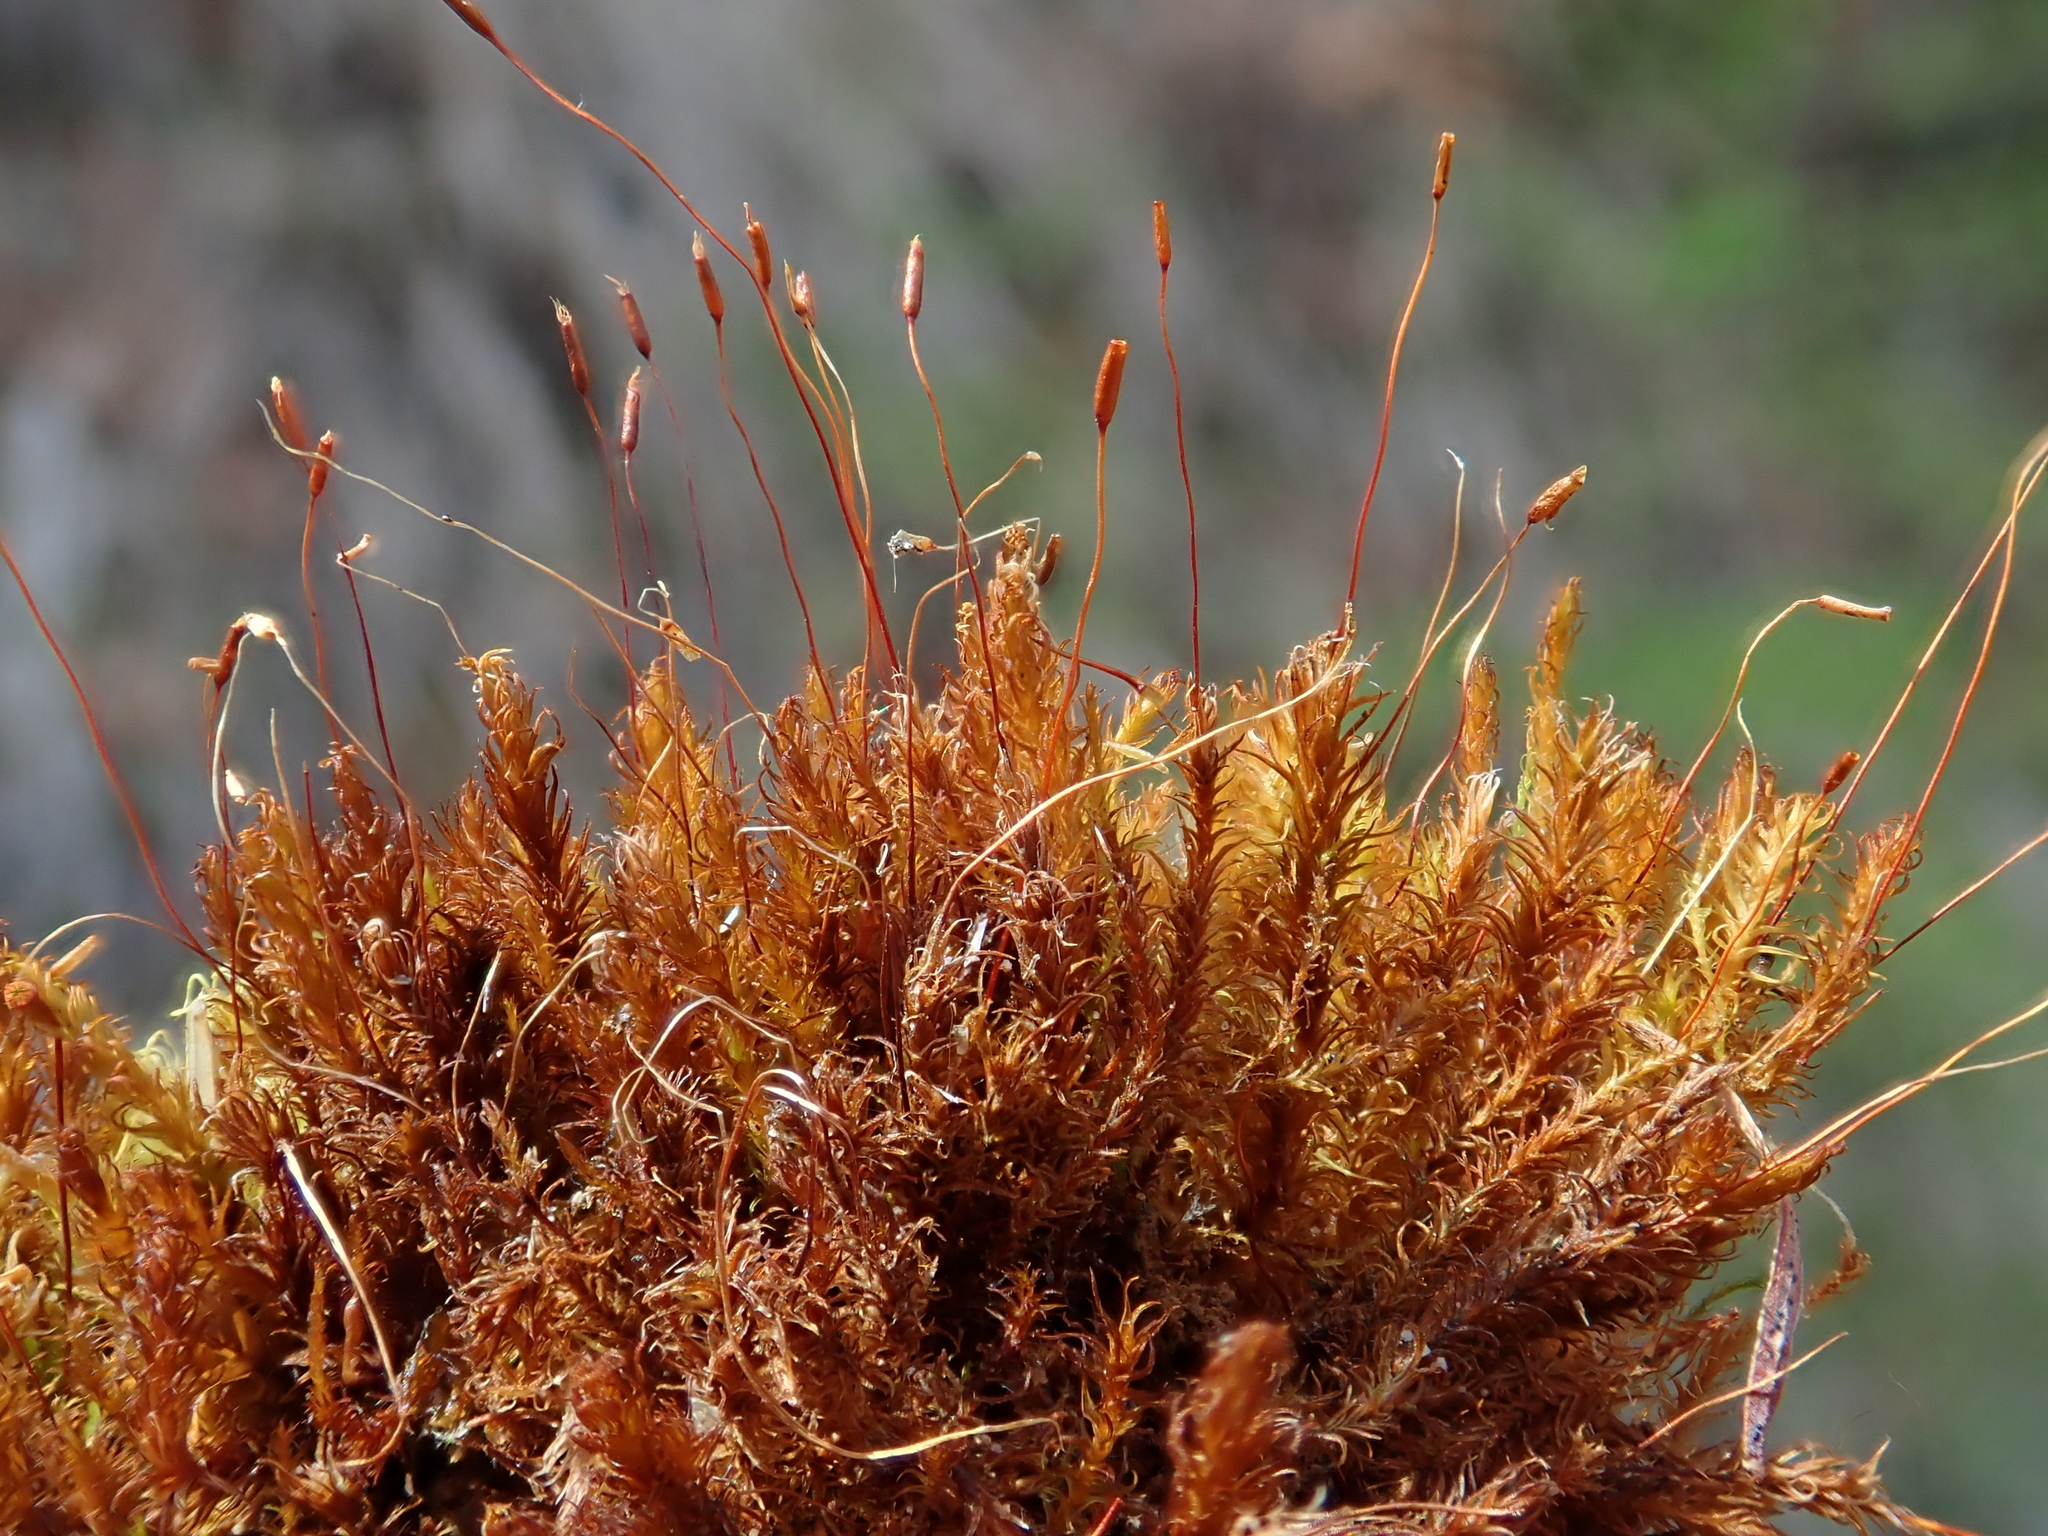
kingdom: Plantae
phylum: Bryophyta
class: Bryopsida
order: Pottiales
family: Pottiaceae
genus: Geheebia
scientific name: Geheebia fallax
